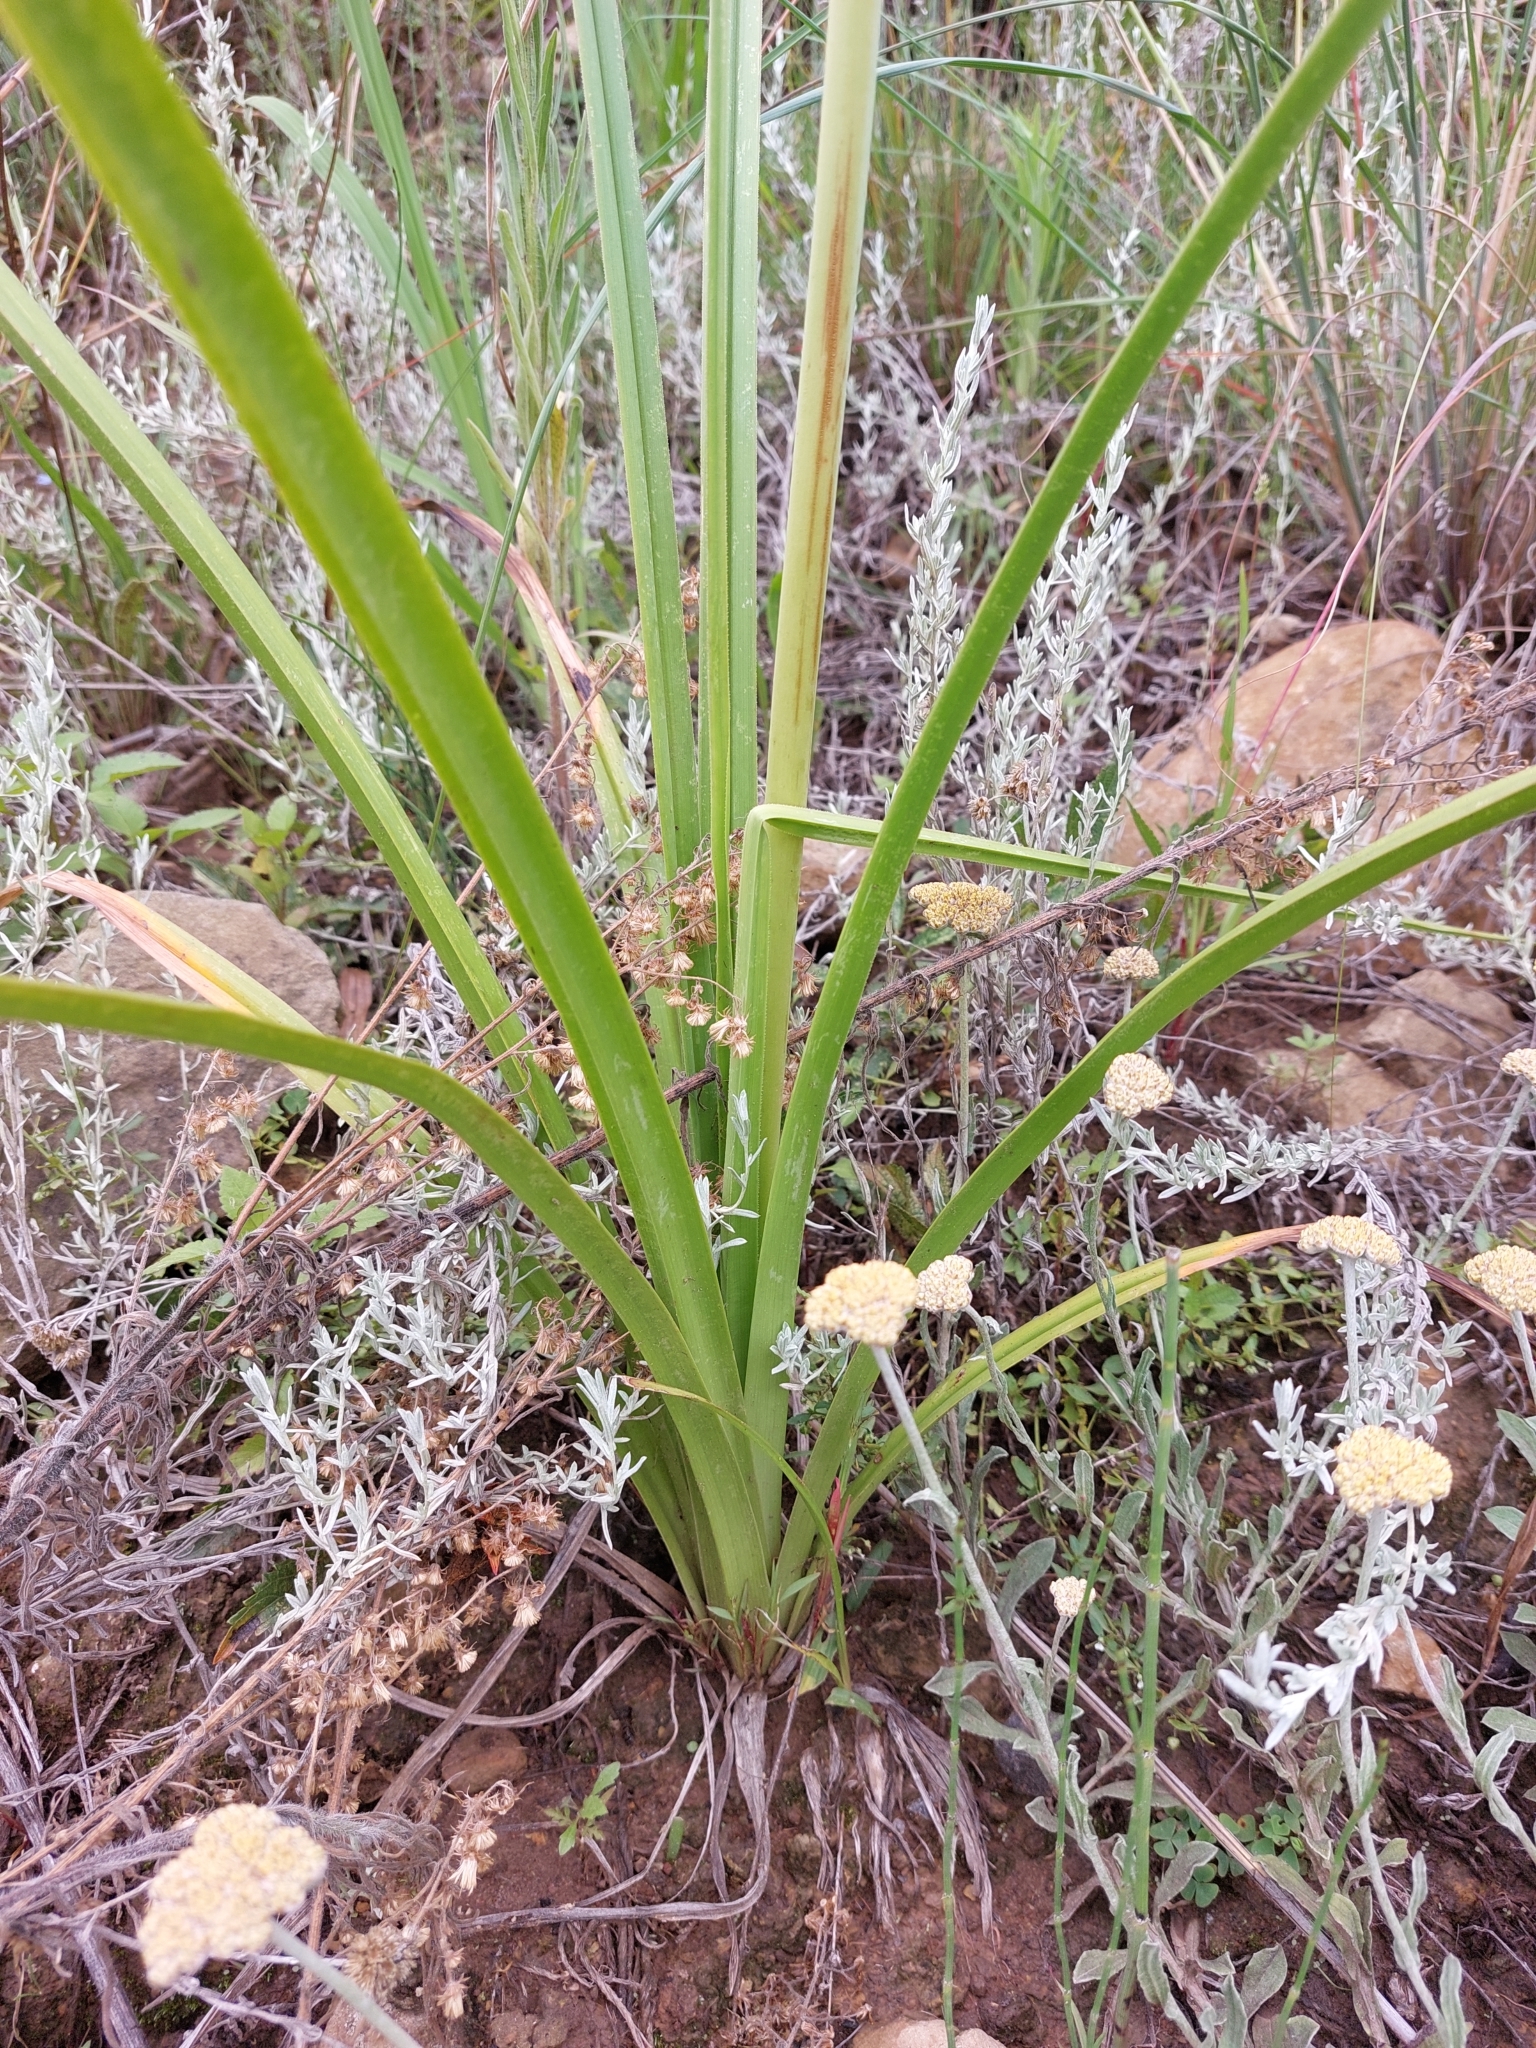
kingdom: Plantae
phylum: Tracheophyta
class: Liliopsida
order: Asparagales
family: Asphodelaceae
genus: Kniphofia
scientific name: Kniphofia linearifolia
